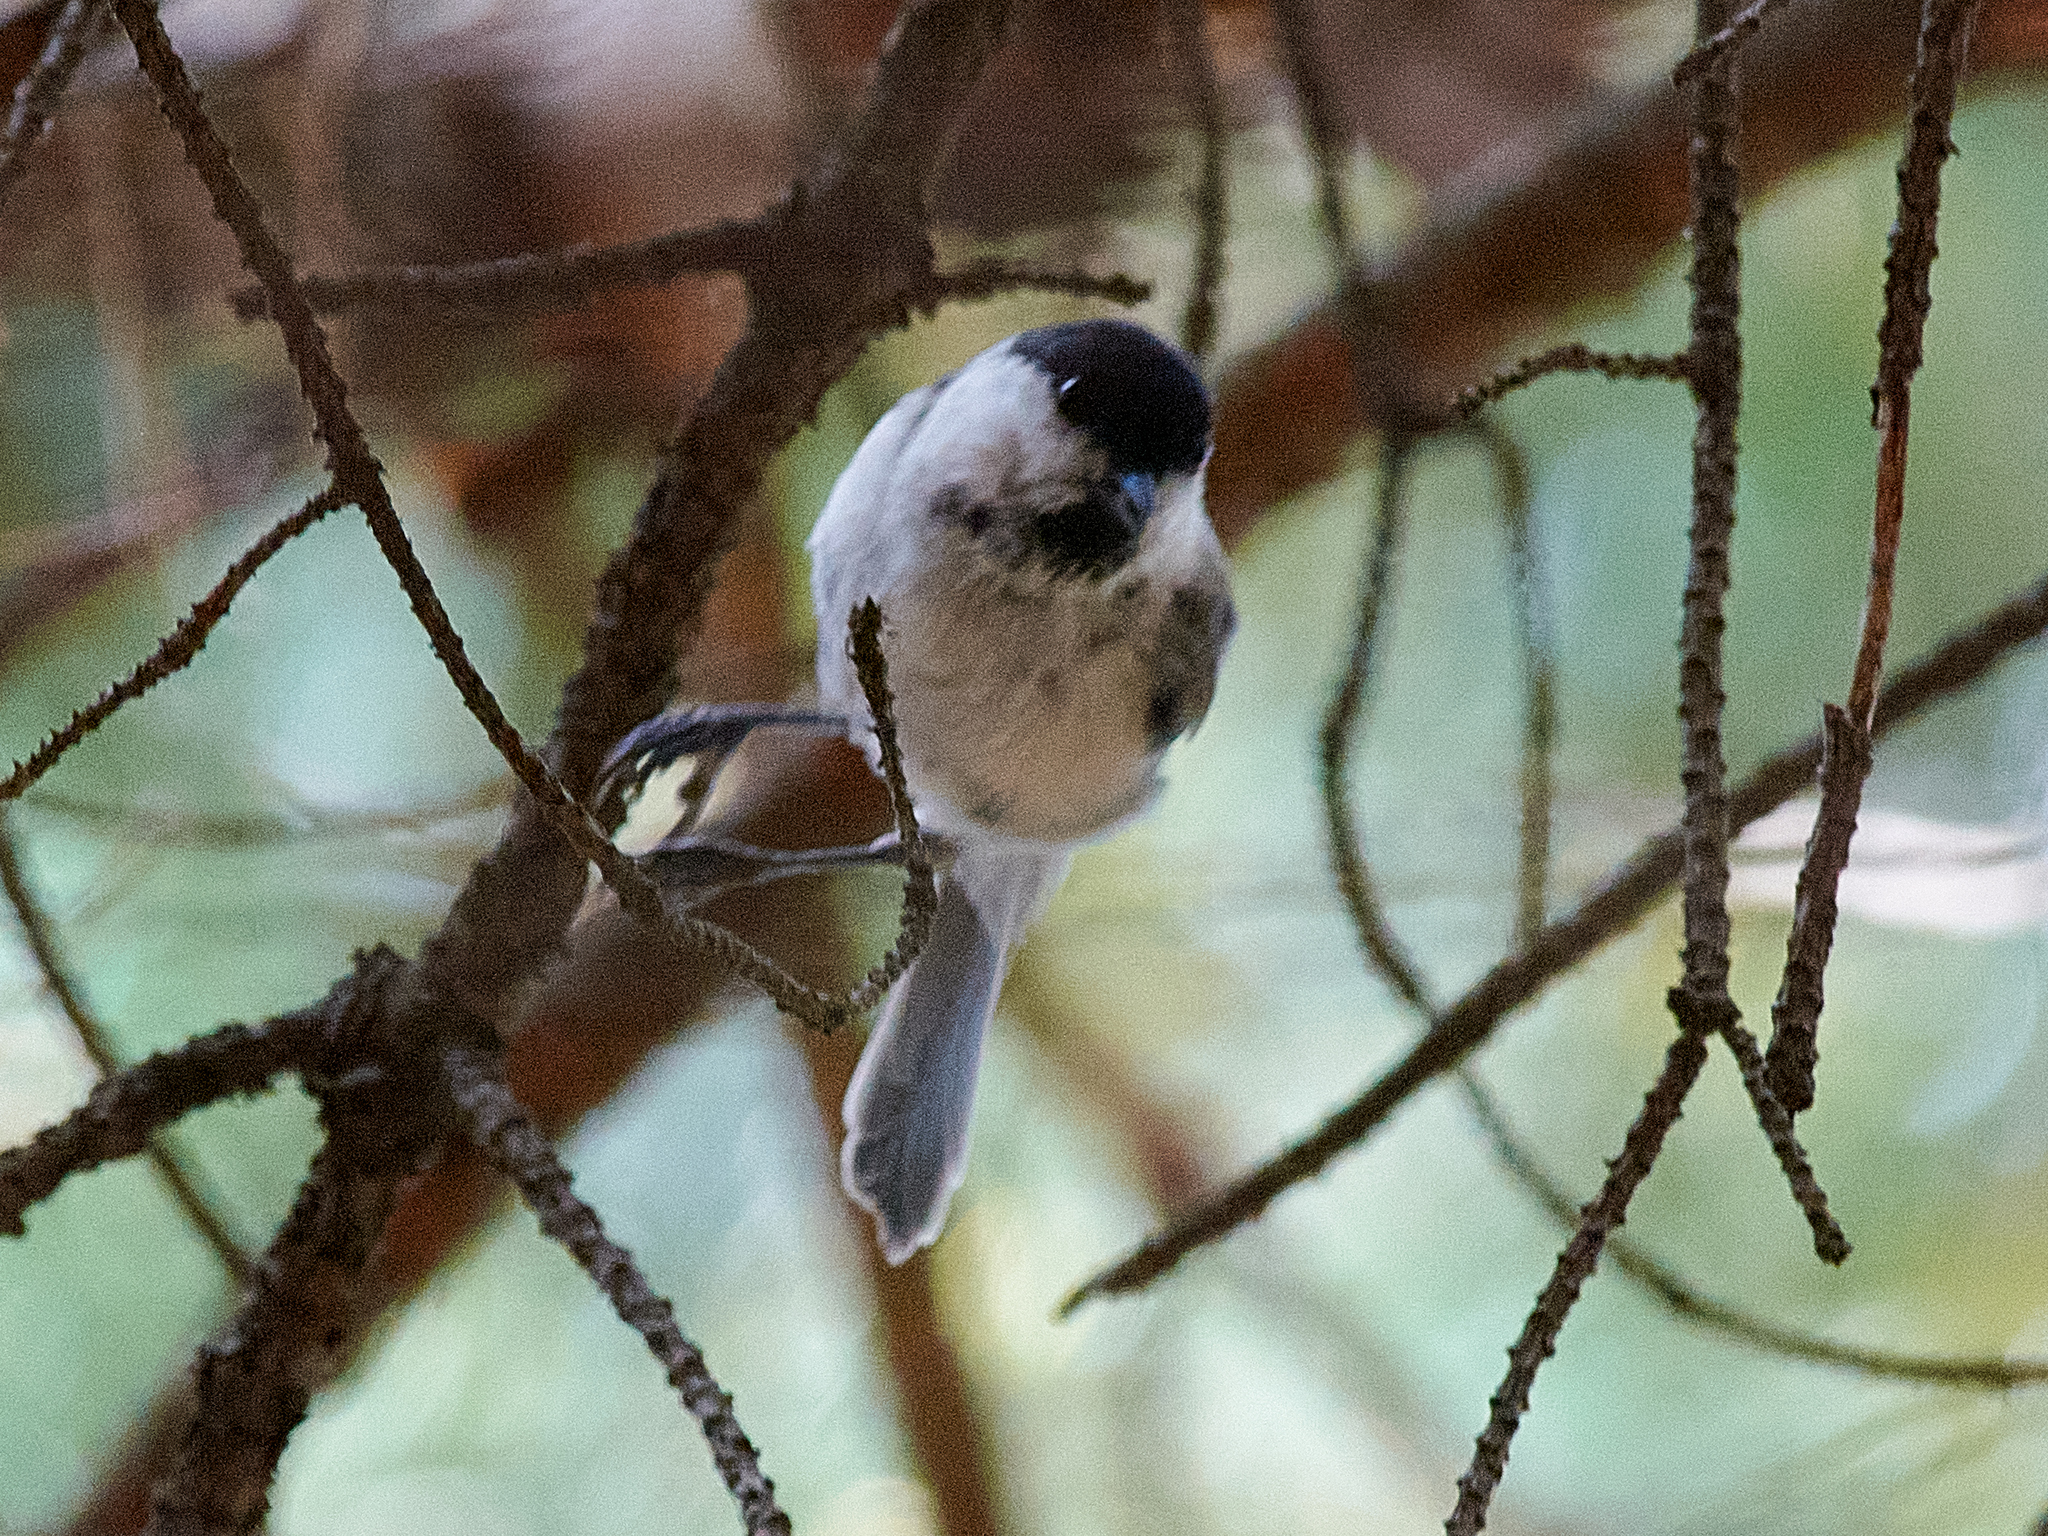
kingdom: Animalia
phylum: Chordata
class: Aves
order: Passeriformes
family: Paridae
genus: Poecile
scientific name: Poecile montanus
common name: Willow tit
